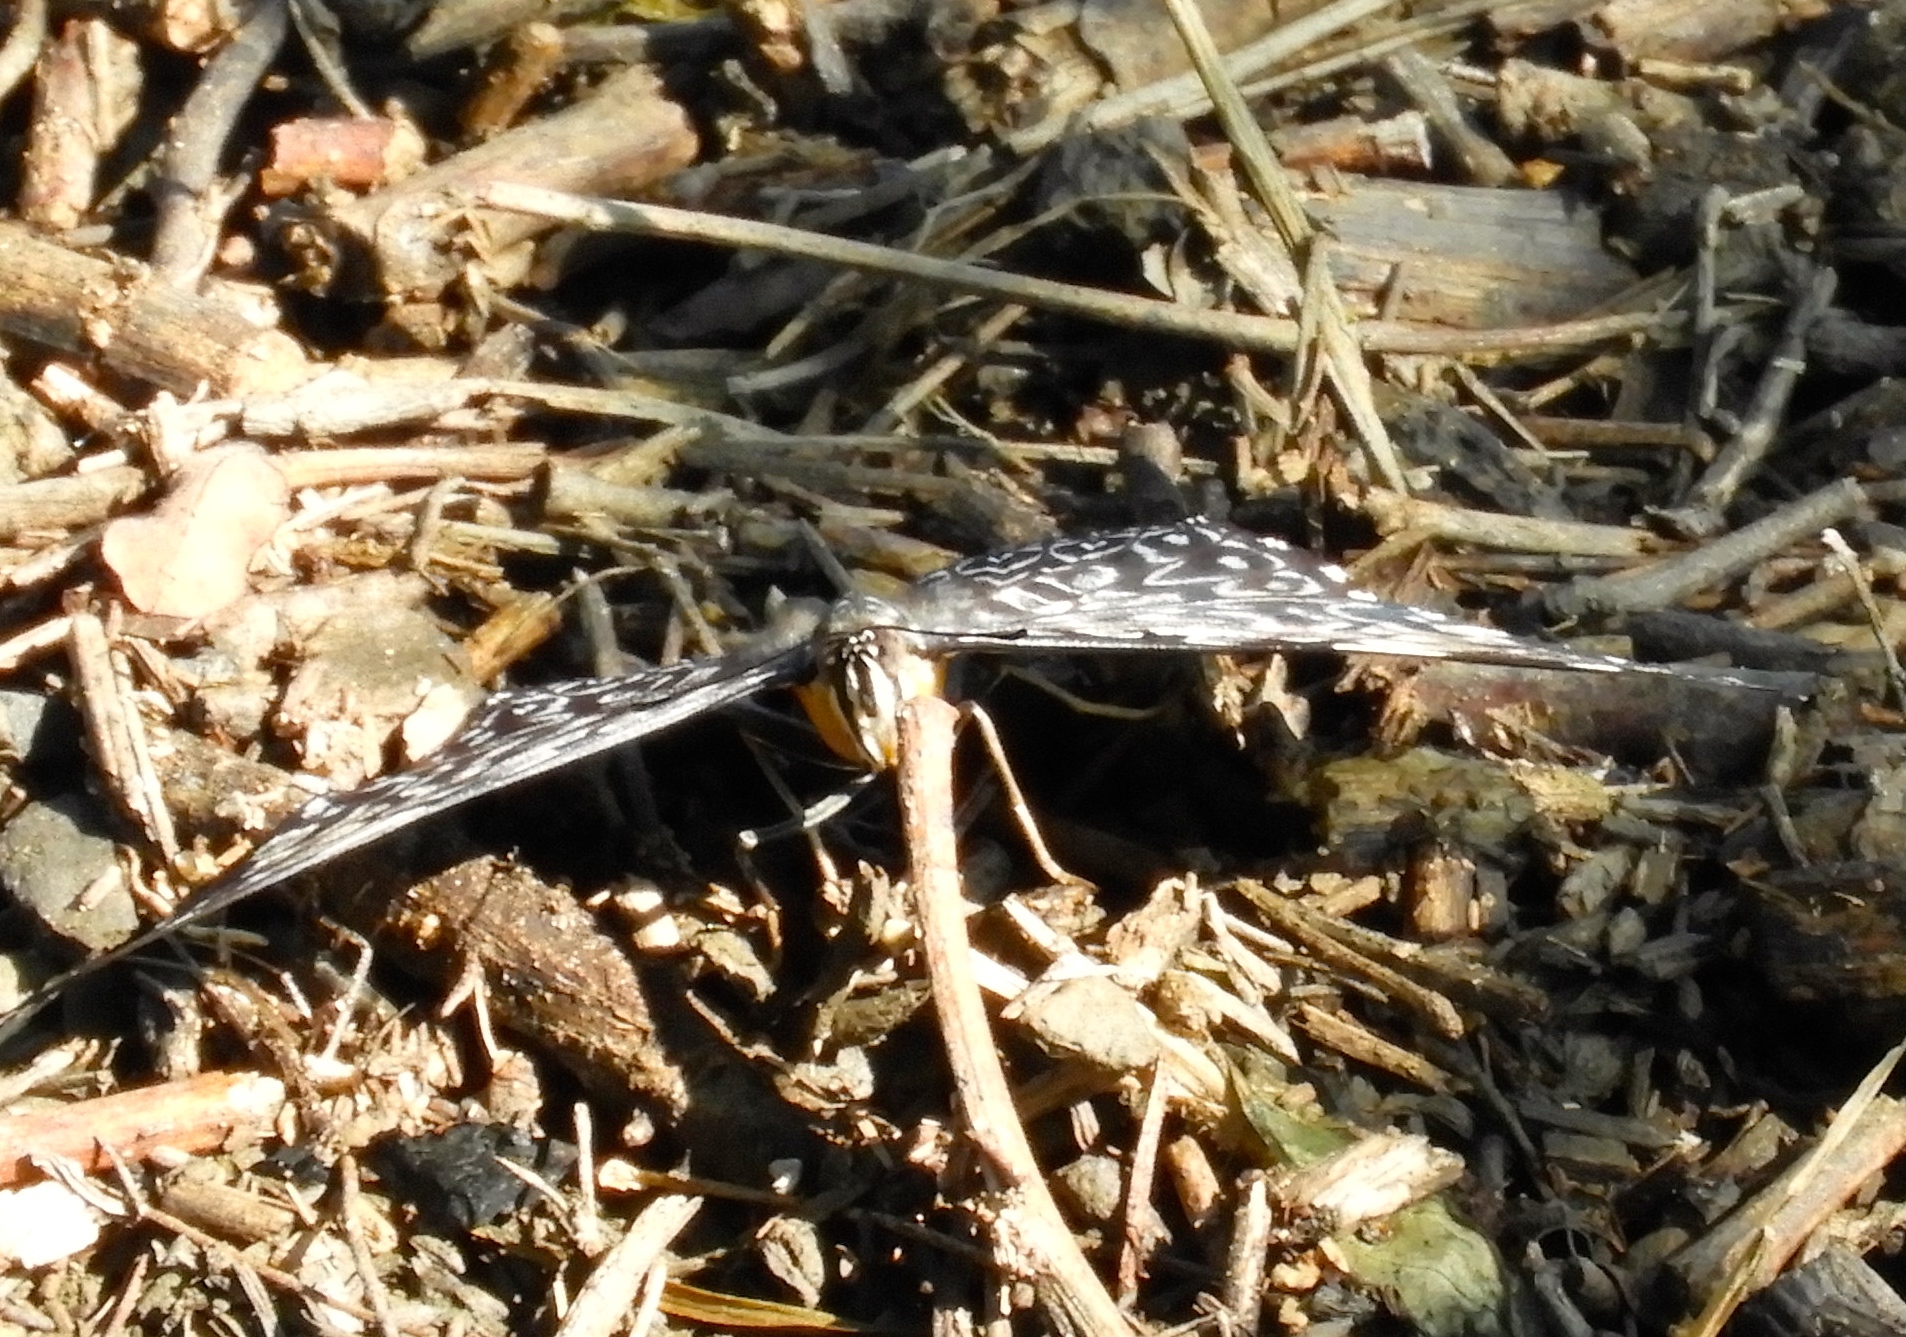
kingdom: Animalia
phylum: Arthropoda
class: Insecta
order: Lepidoptera
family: Nymphalidae
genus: Hamadryas
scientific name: Hamadryas amphinome
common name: Red cracker
